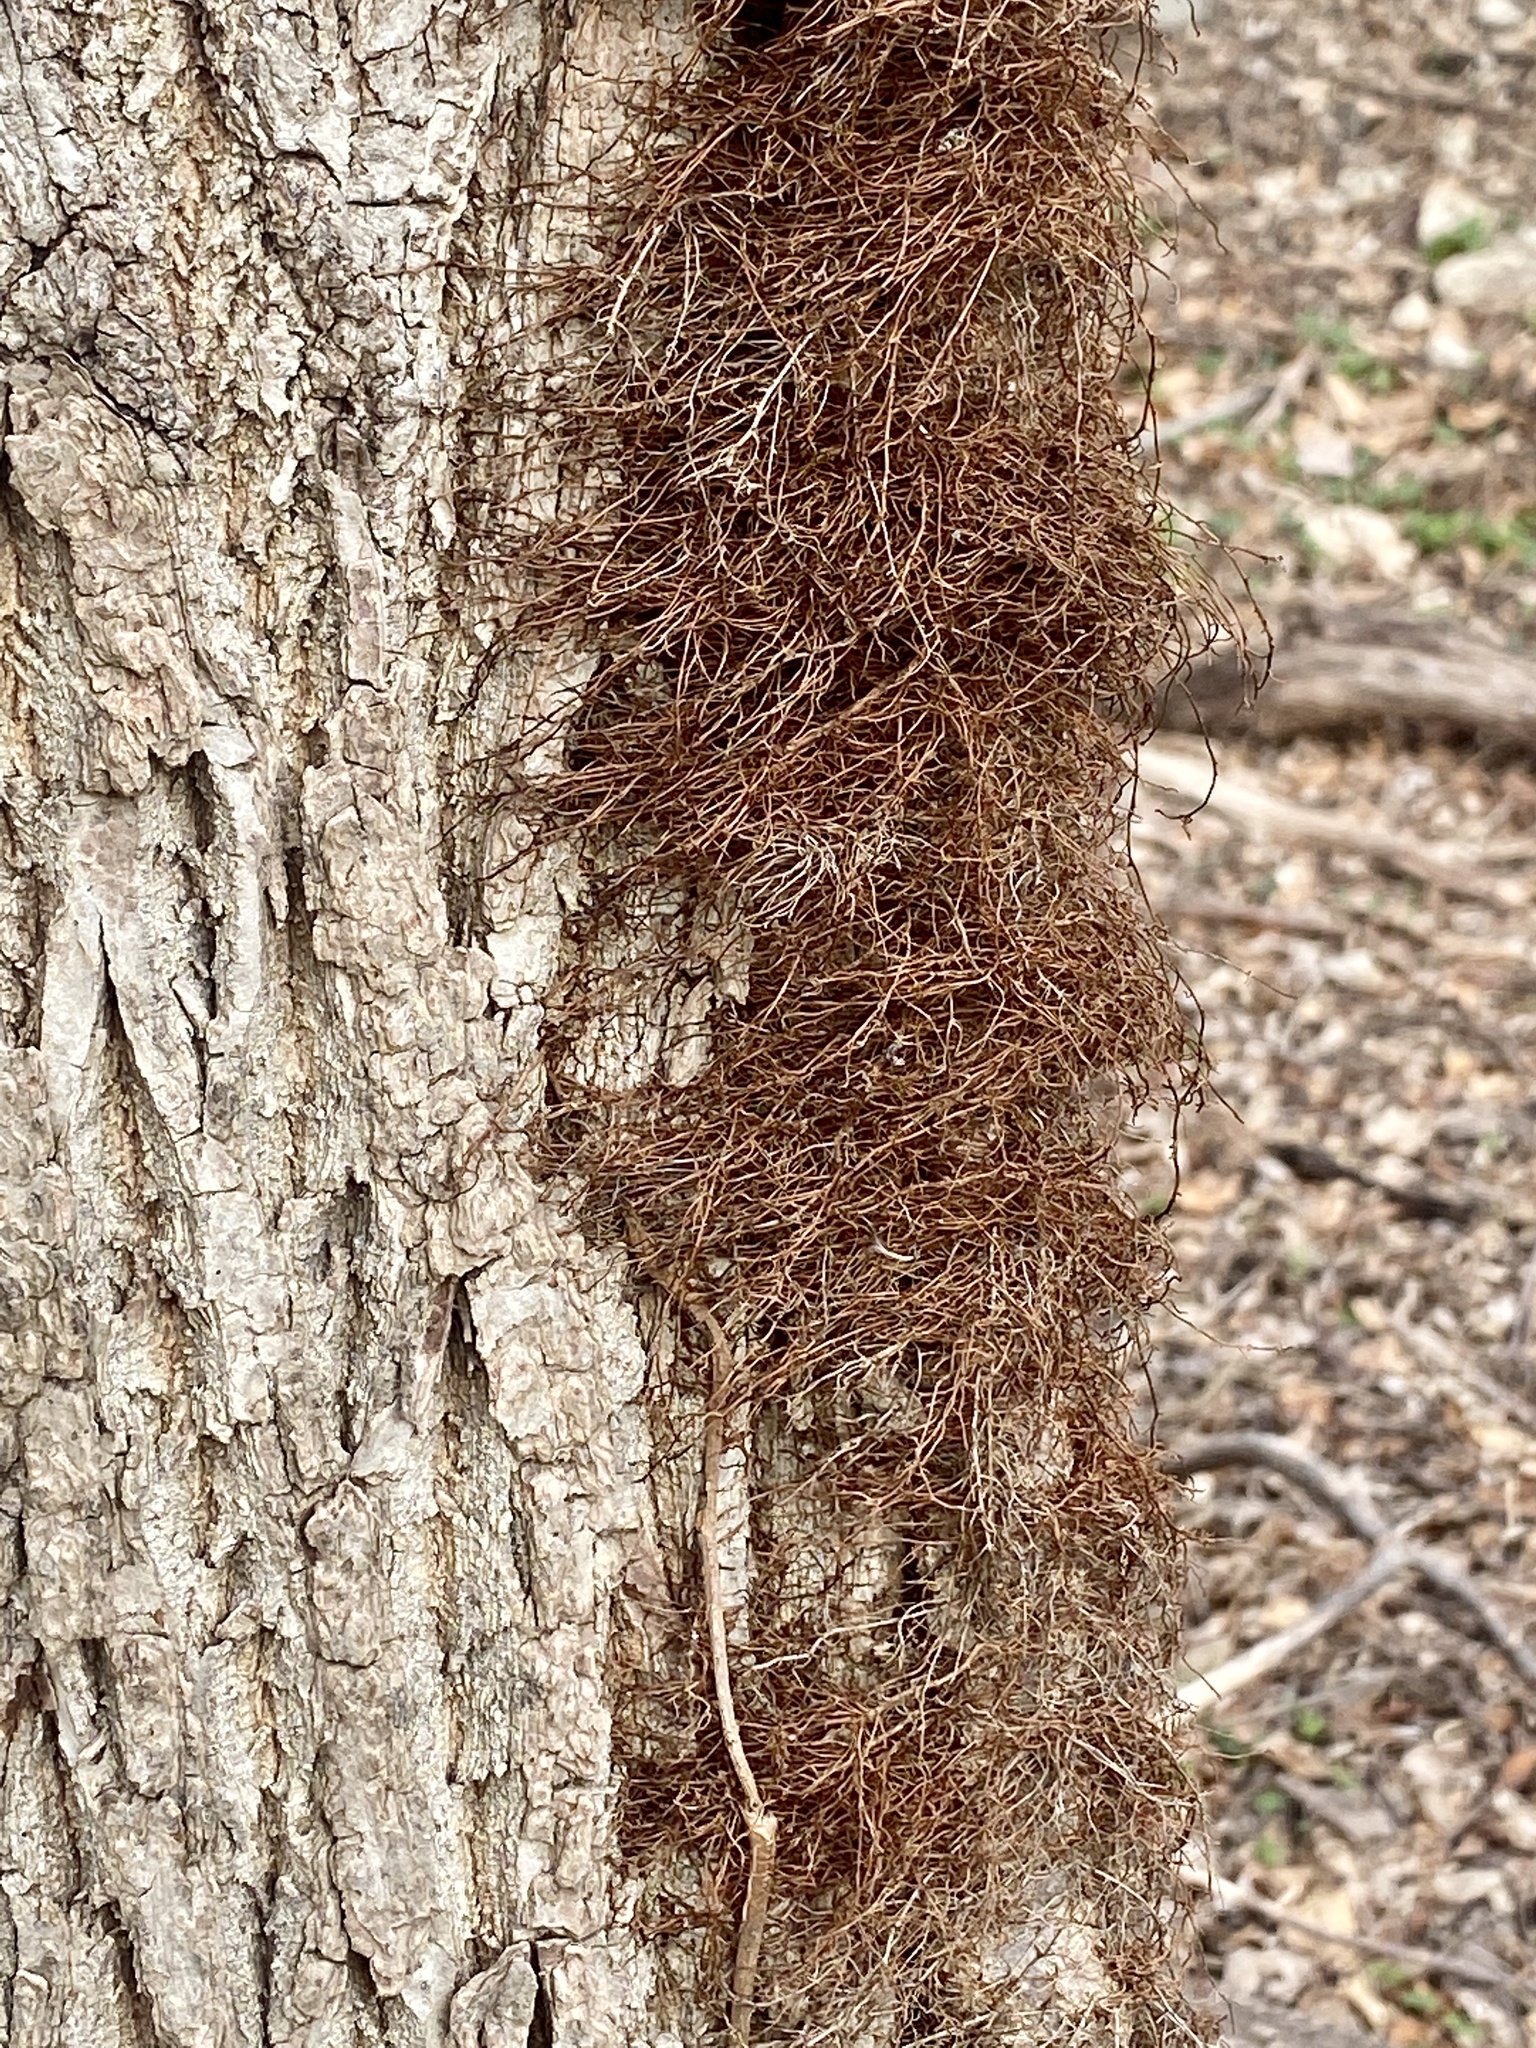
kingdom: Plantae
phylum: Tracheophyta
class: Magnoliopsida
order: Sapindales
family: Anacardiaceae
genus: Toxicodendron
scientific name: Toxicodendron radicans
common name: Poison ivy
